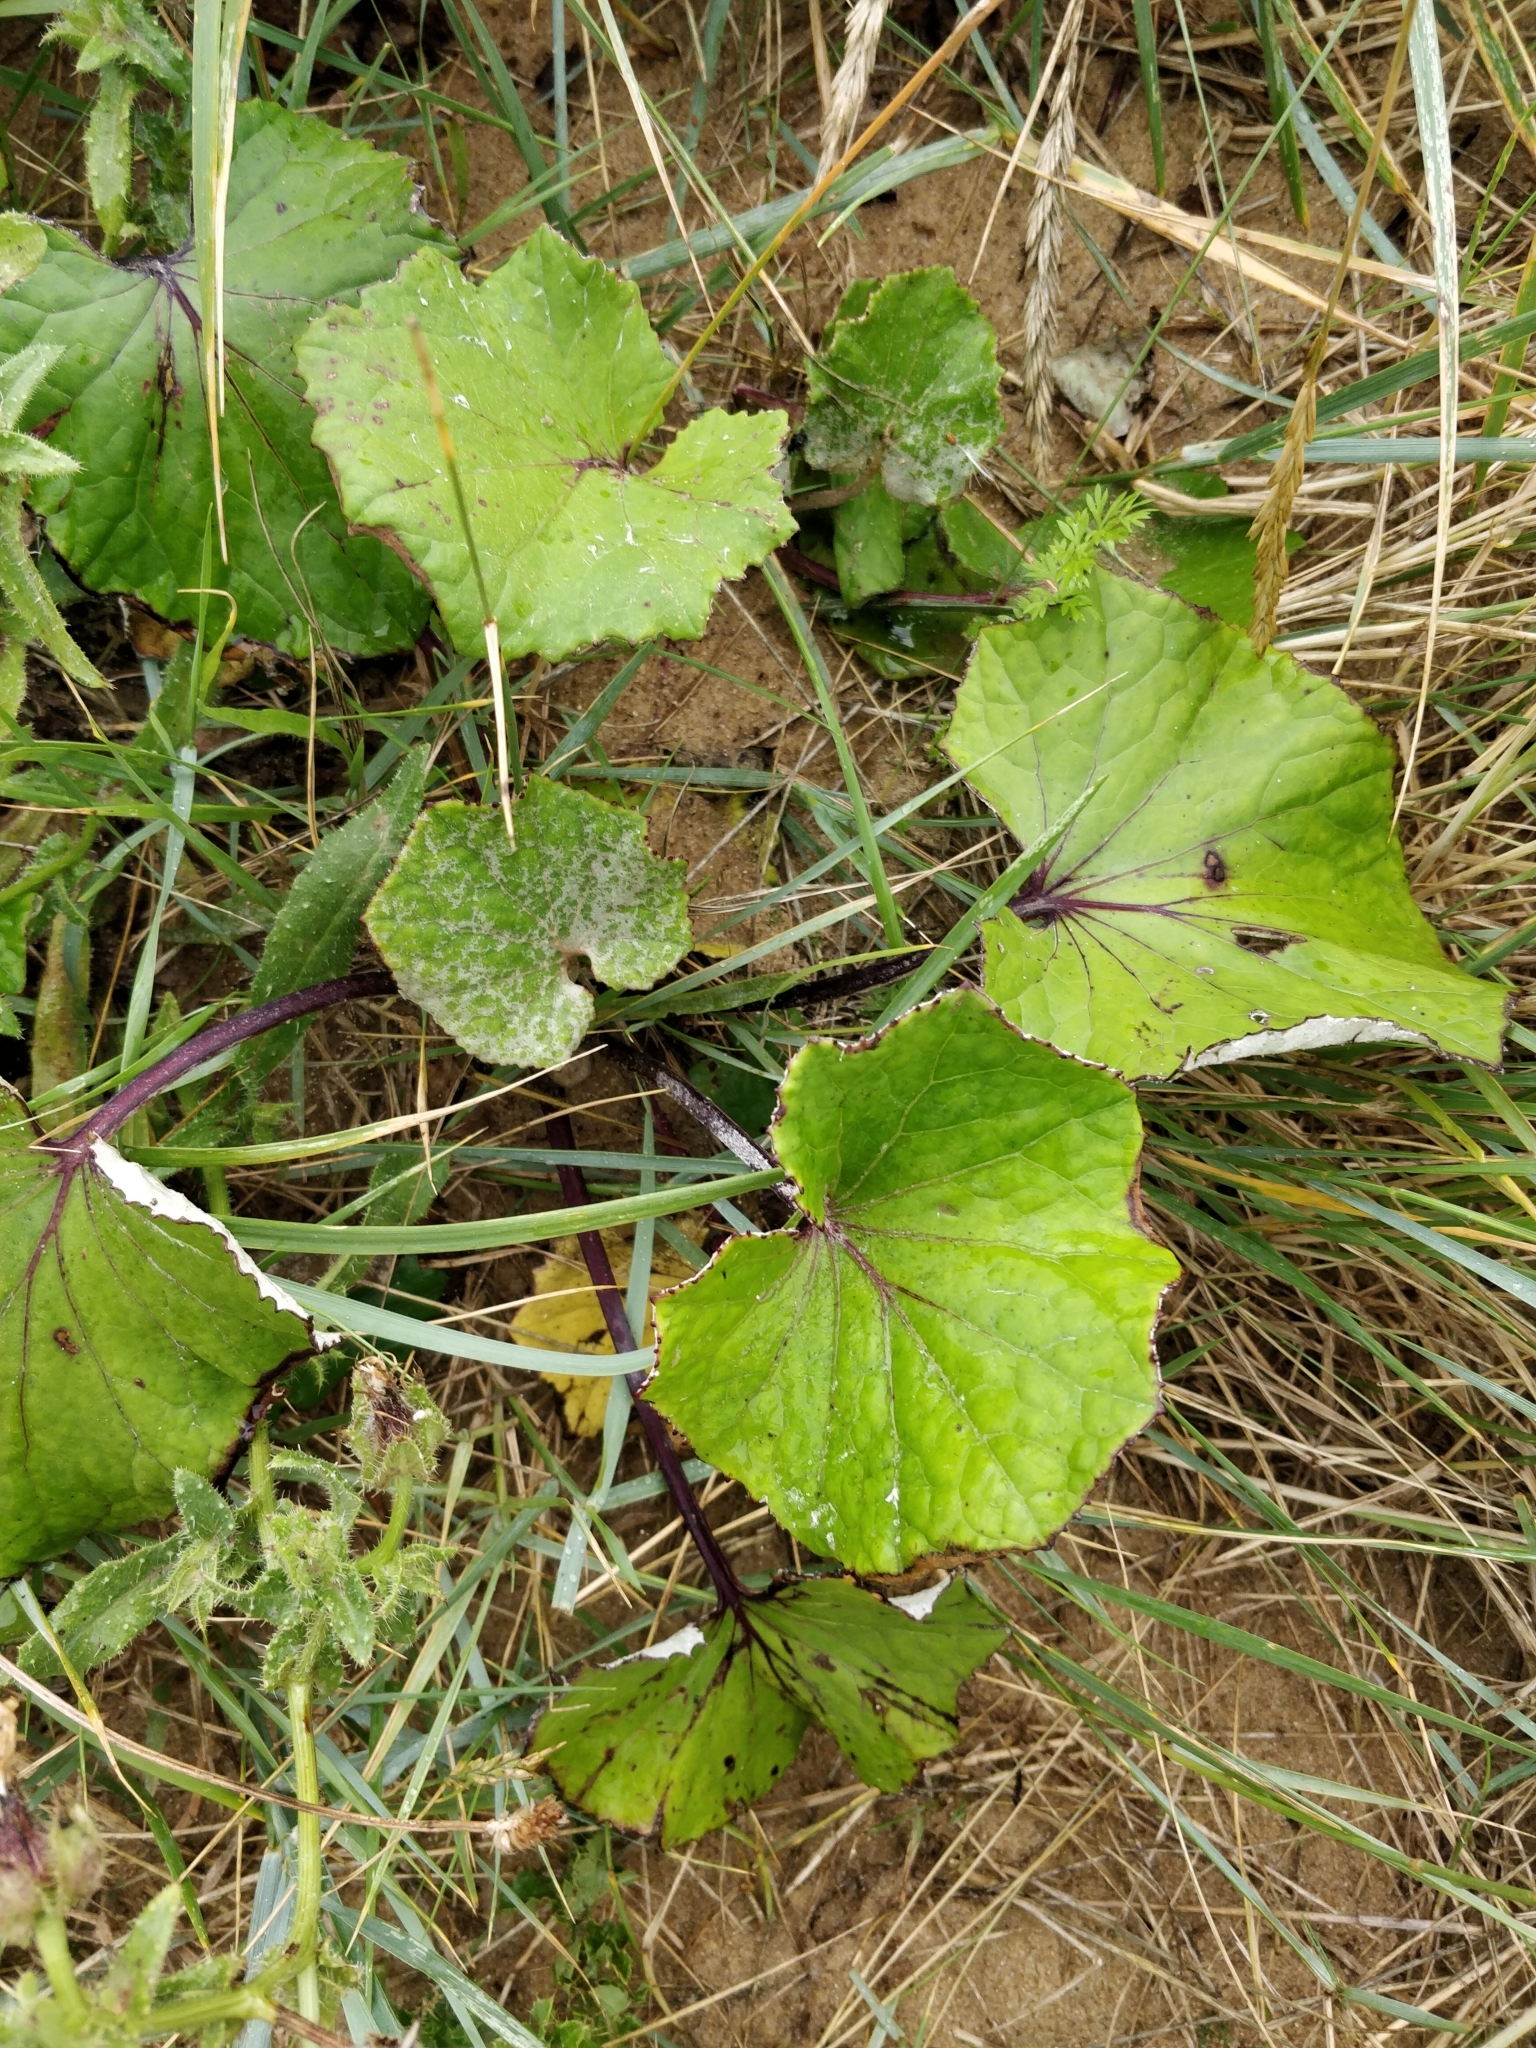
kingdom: Plantae
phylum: Tracheophyta
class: Magnoliopsida
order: Asterales
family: Asteraceae
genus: Tussilago
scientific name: Tussilago farfara
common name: Coltsfoot
